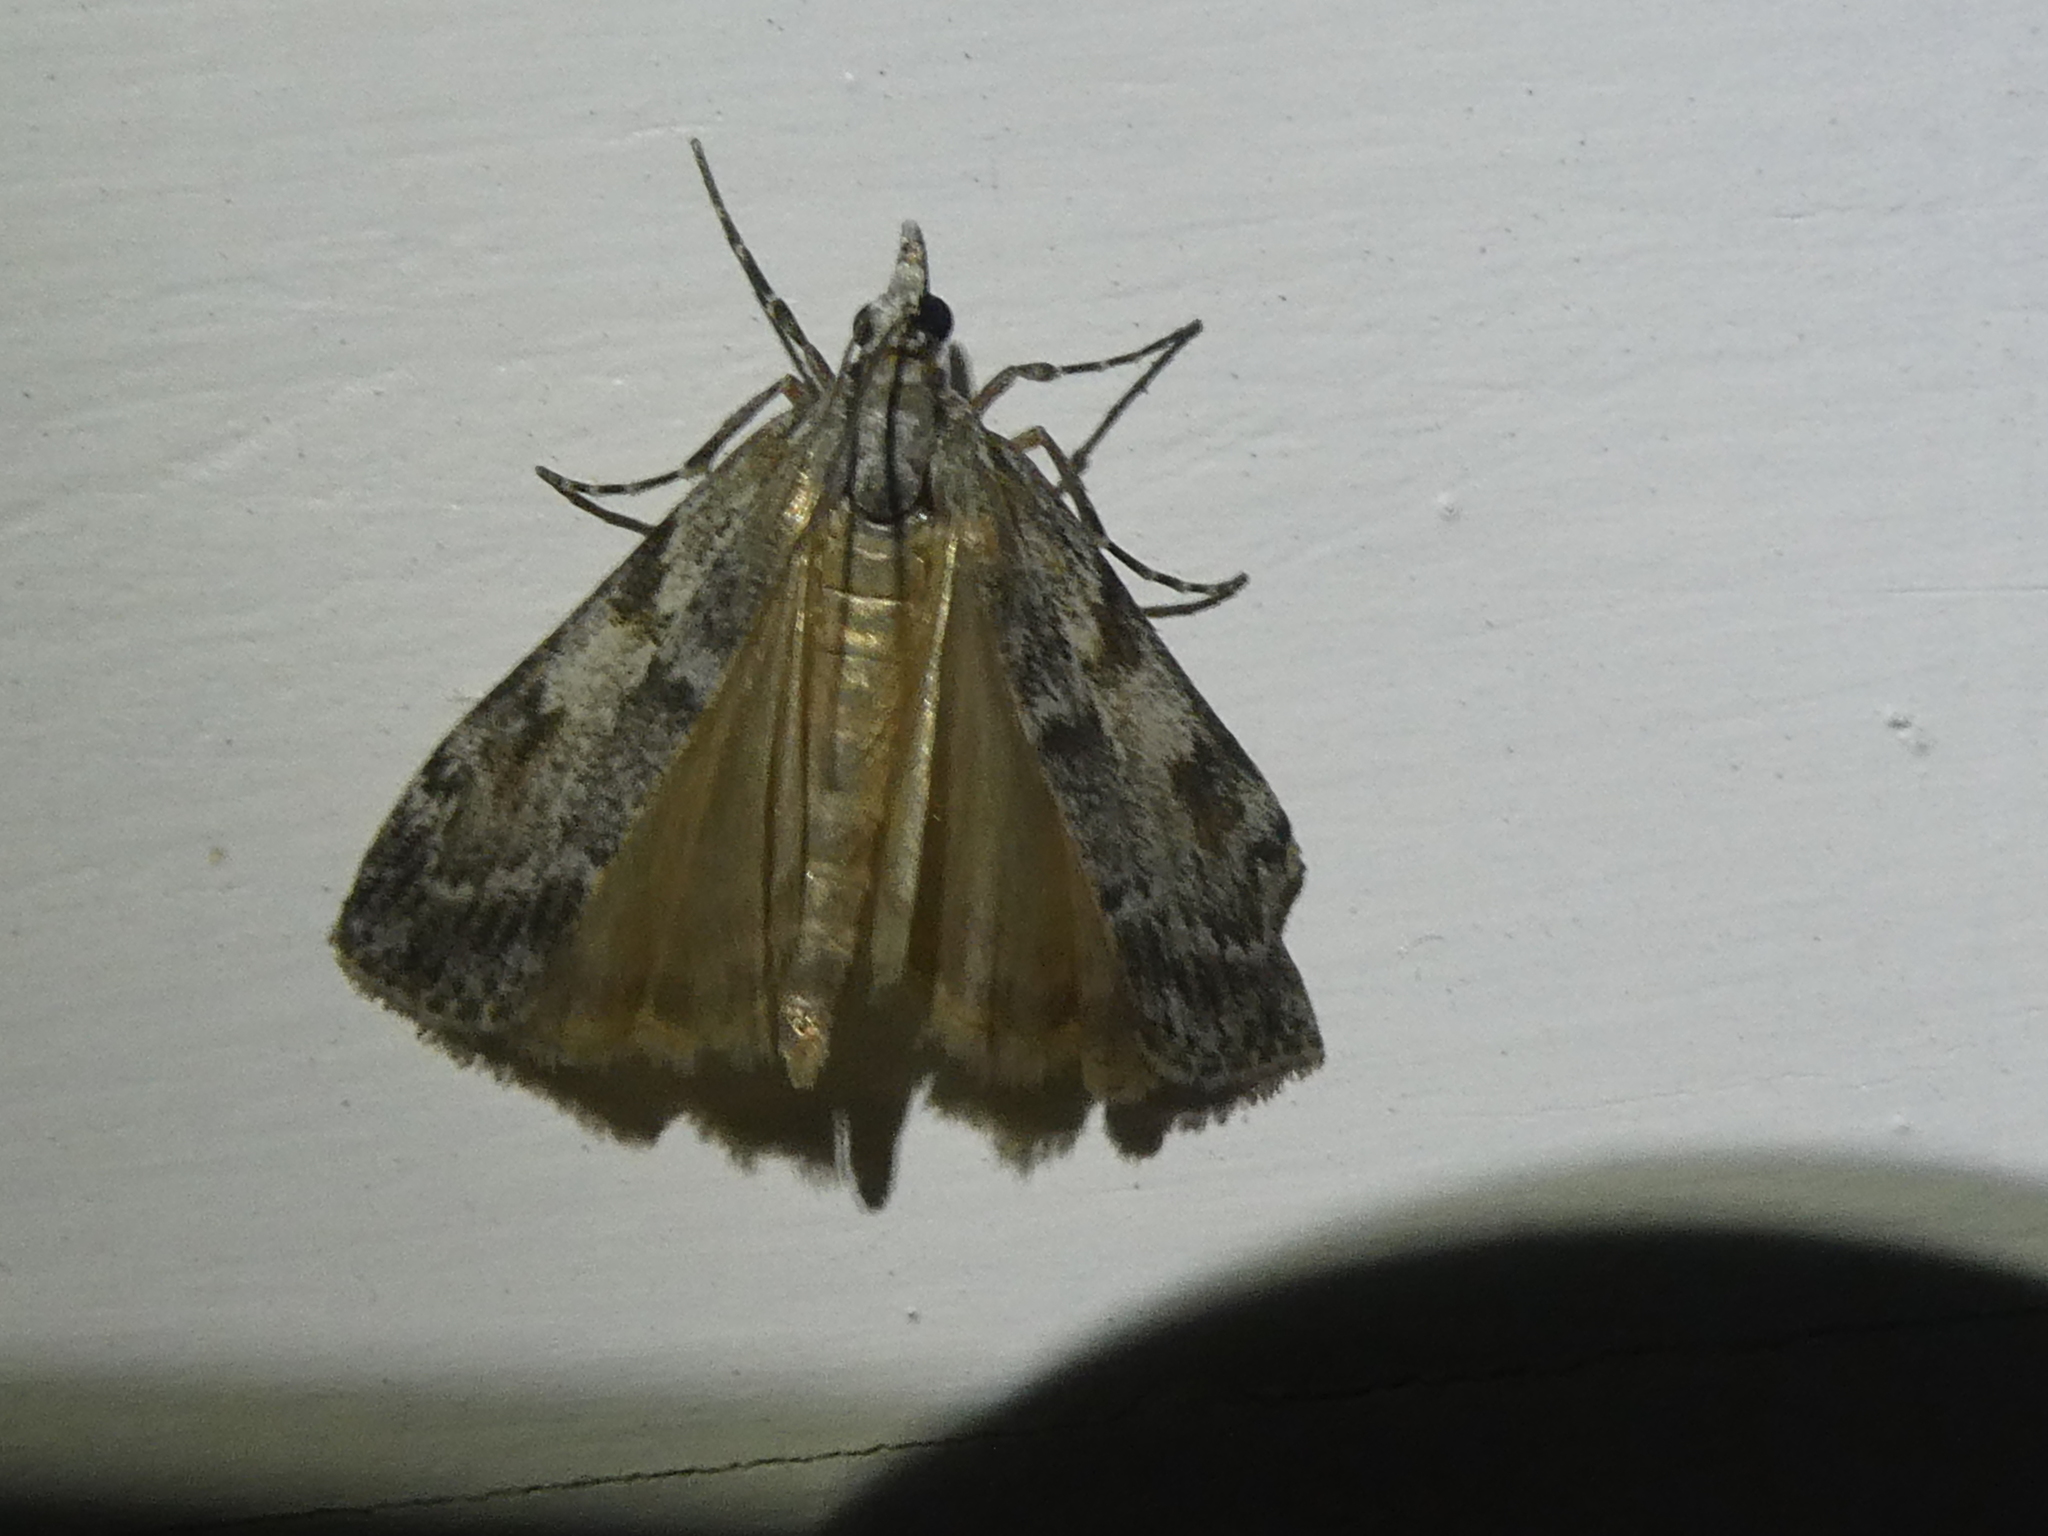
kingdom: Animalia
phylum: Arthropoda
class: Insecta
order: Lepidoptera
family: Crambidae
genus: Scoparia
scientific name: Scoparia halopis
